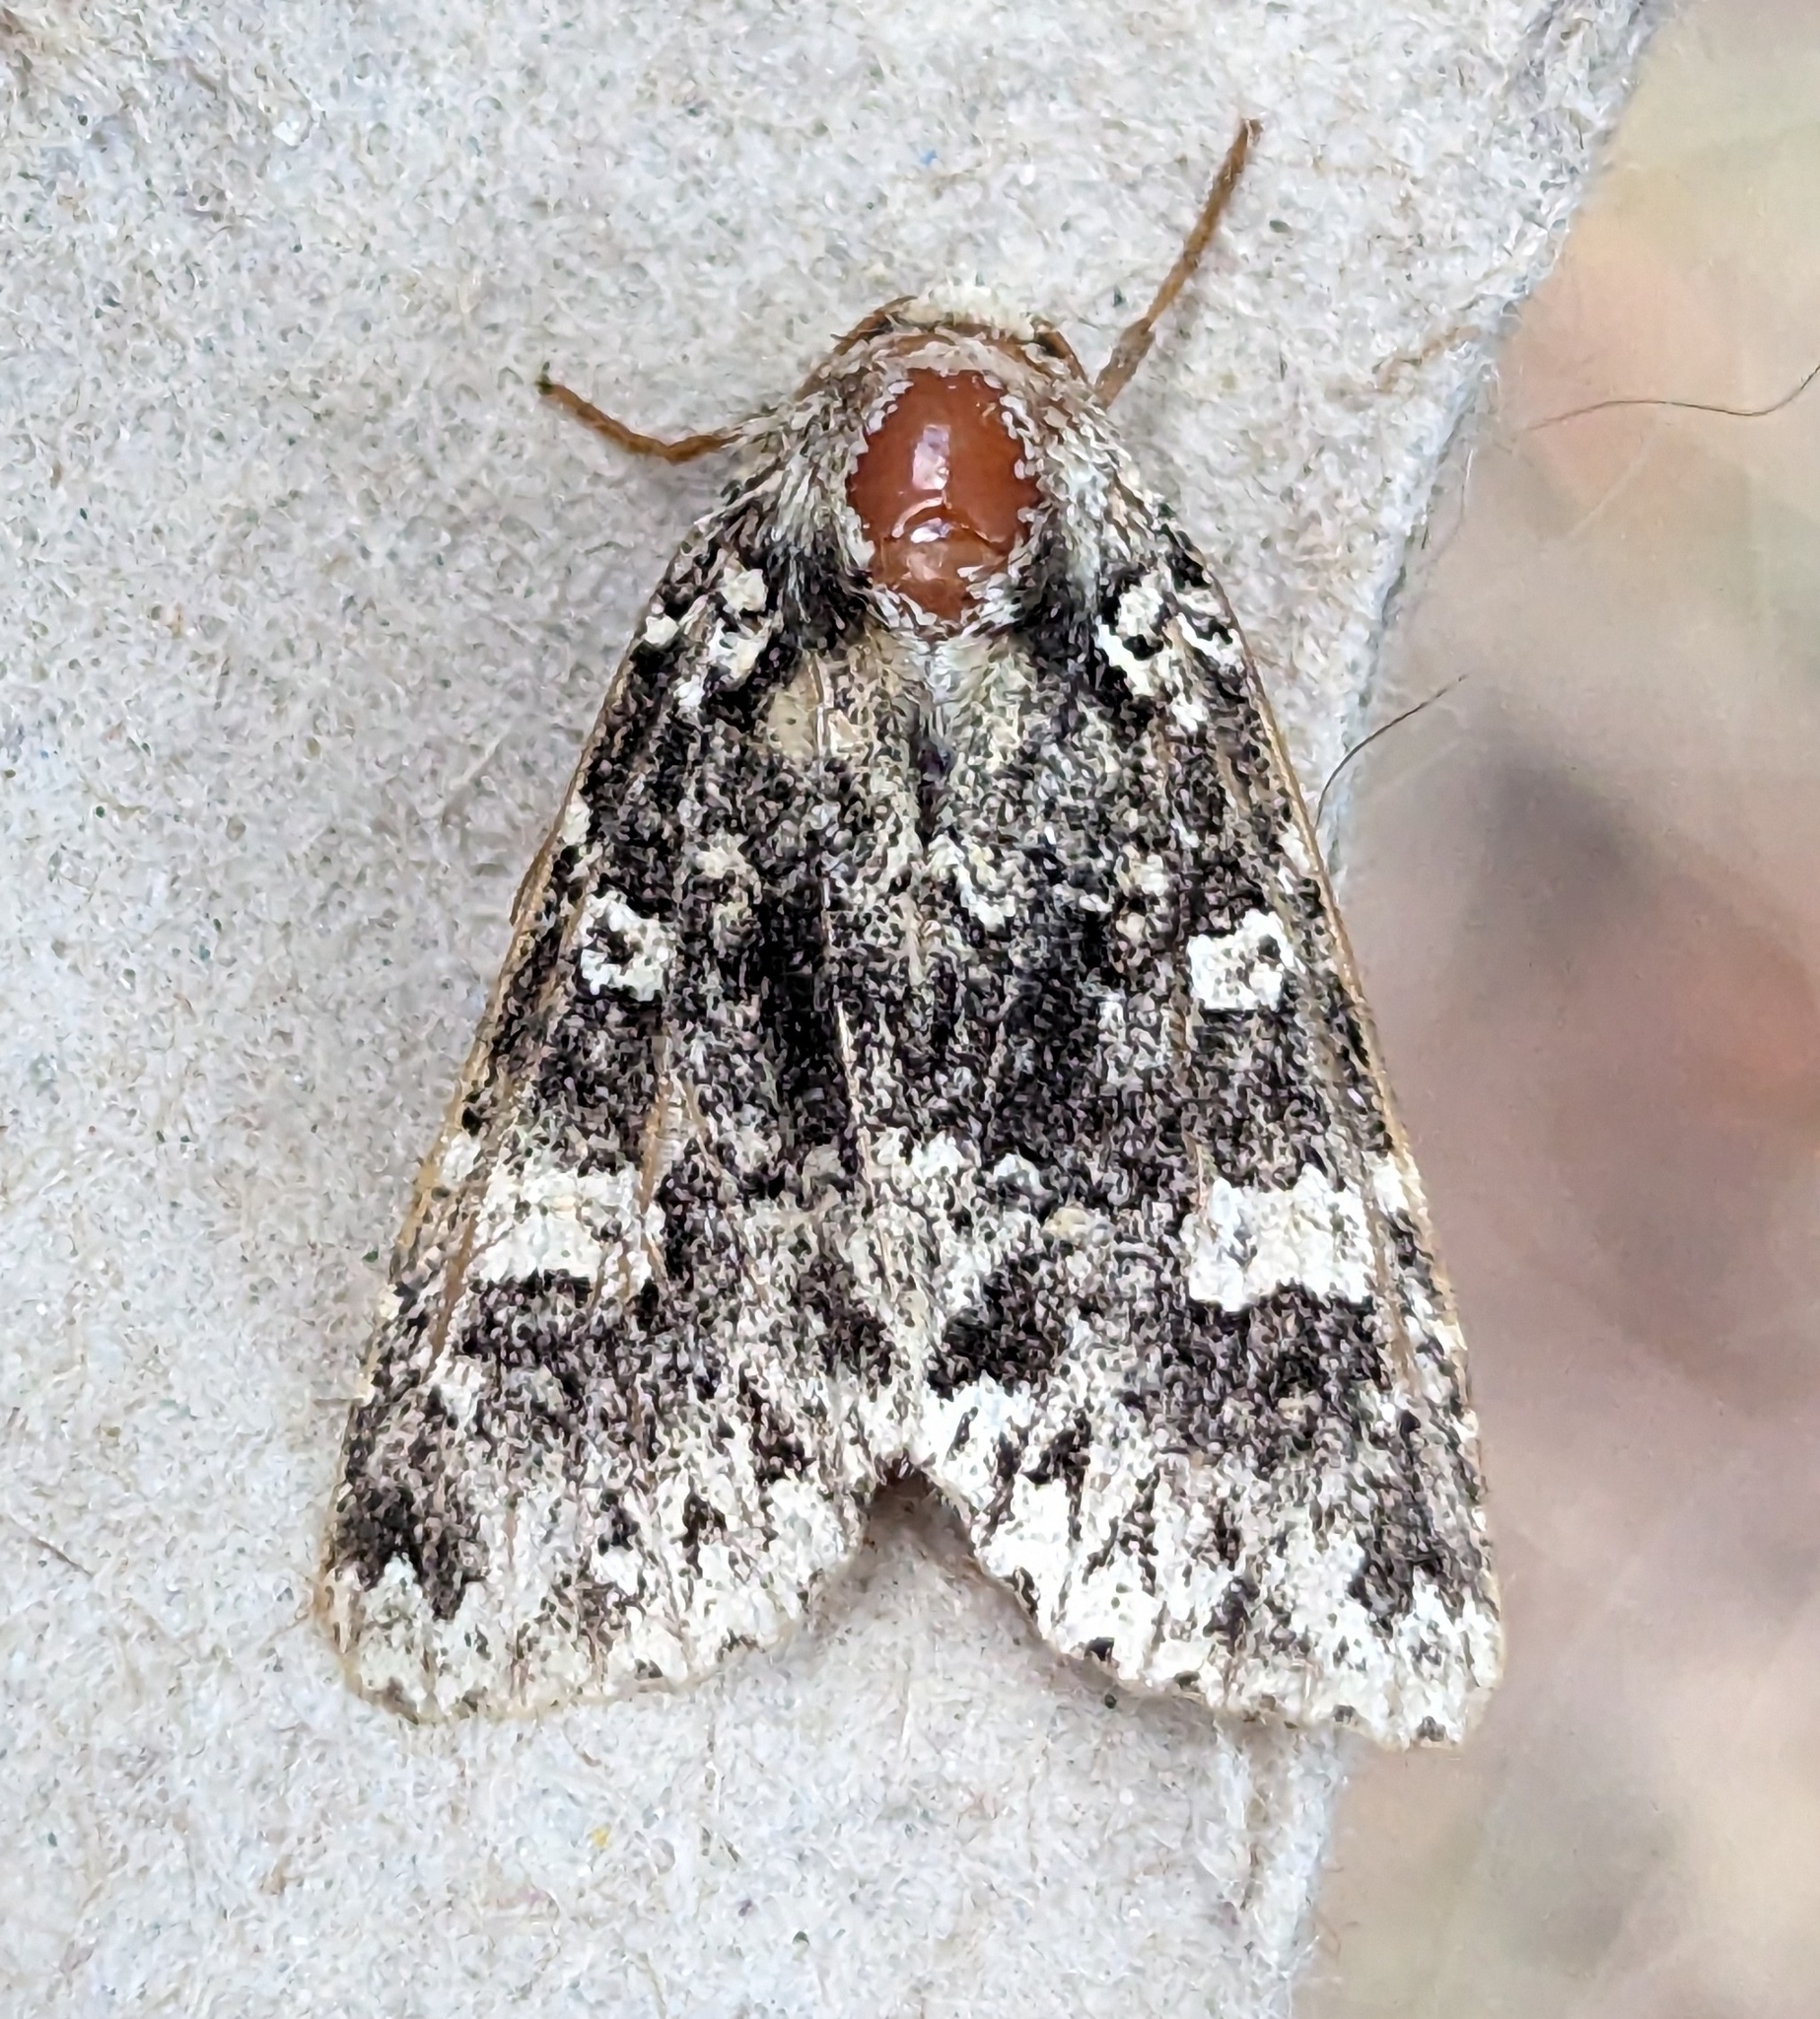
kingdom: Animalia
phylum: Arthropoda
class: Insecta
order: Lepidoptera
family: Noctuidae
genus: Melanchra
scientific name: Melanchra adjuncta
